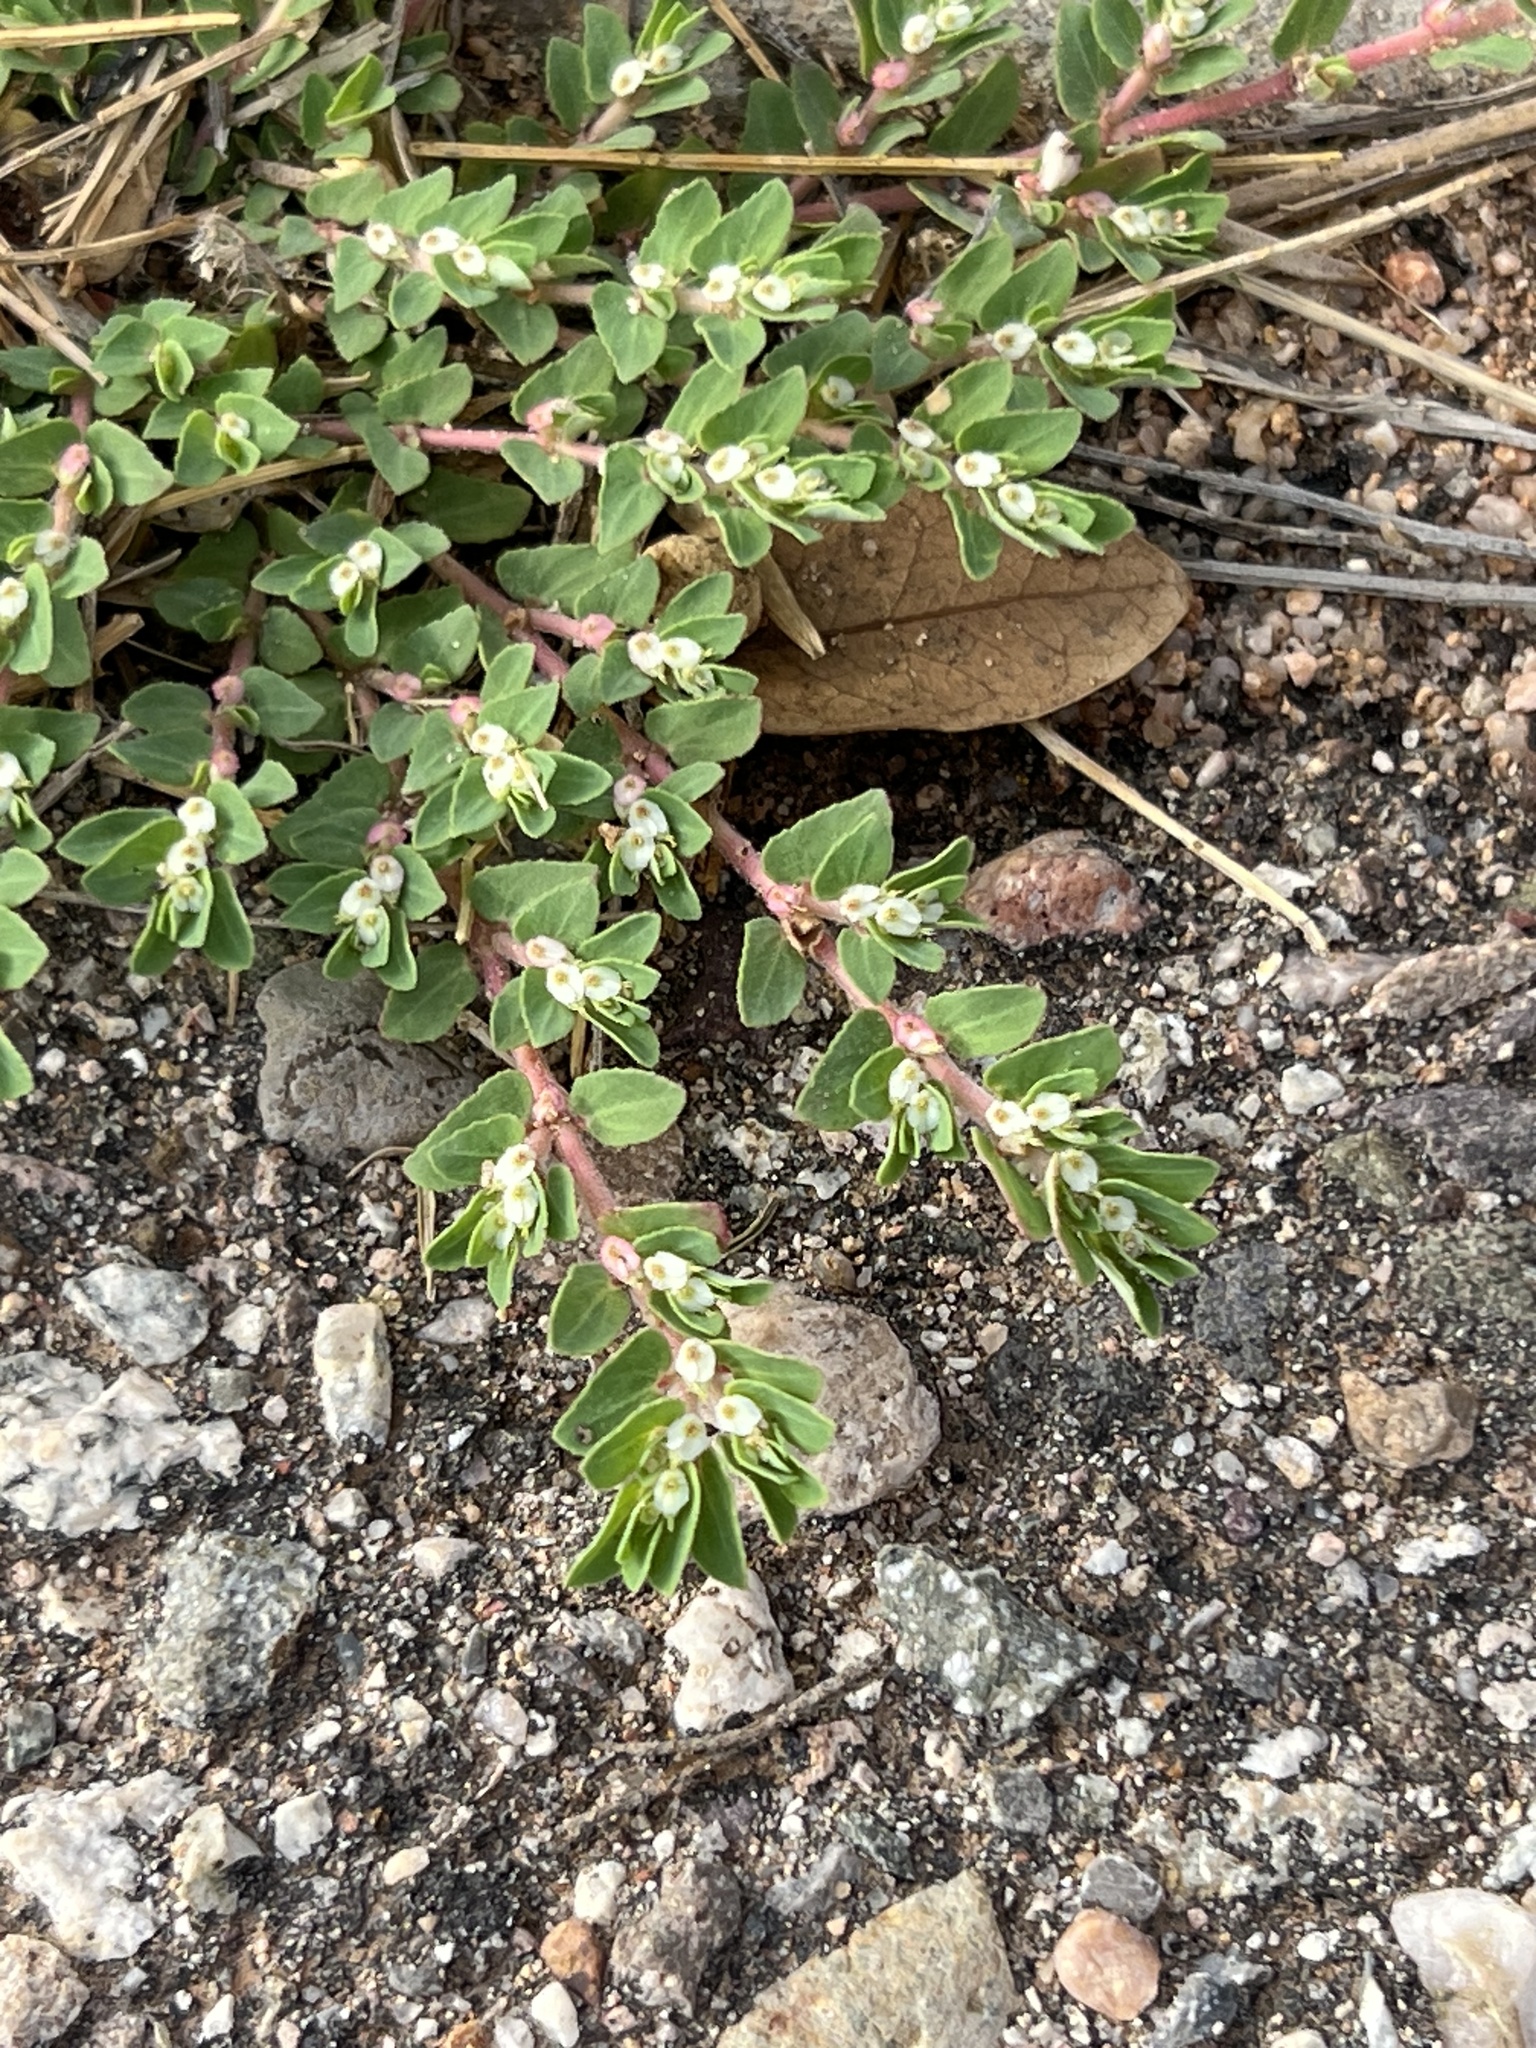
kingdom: Plantae
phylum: Tracheophyta
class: Magnoliopsida
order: Malpighiales
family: Euphorbiaceae
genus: Euphorbia
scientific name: Euphorbia indivisa
